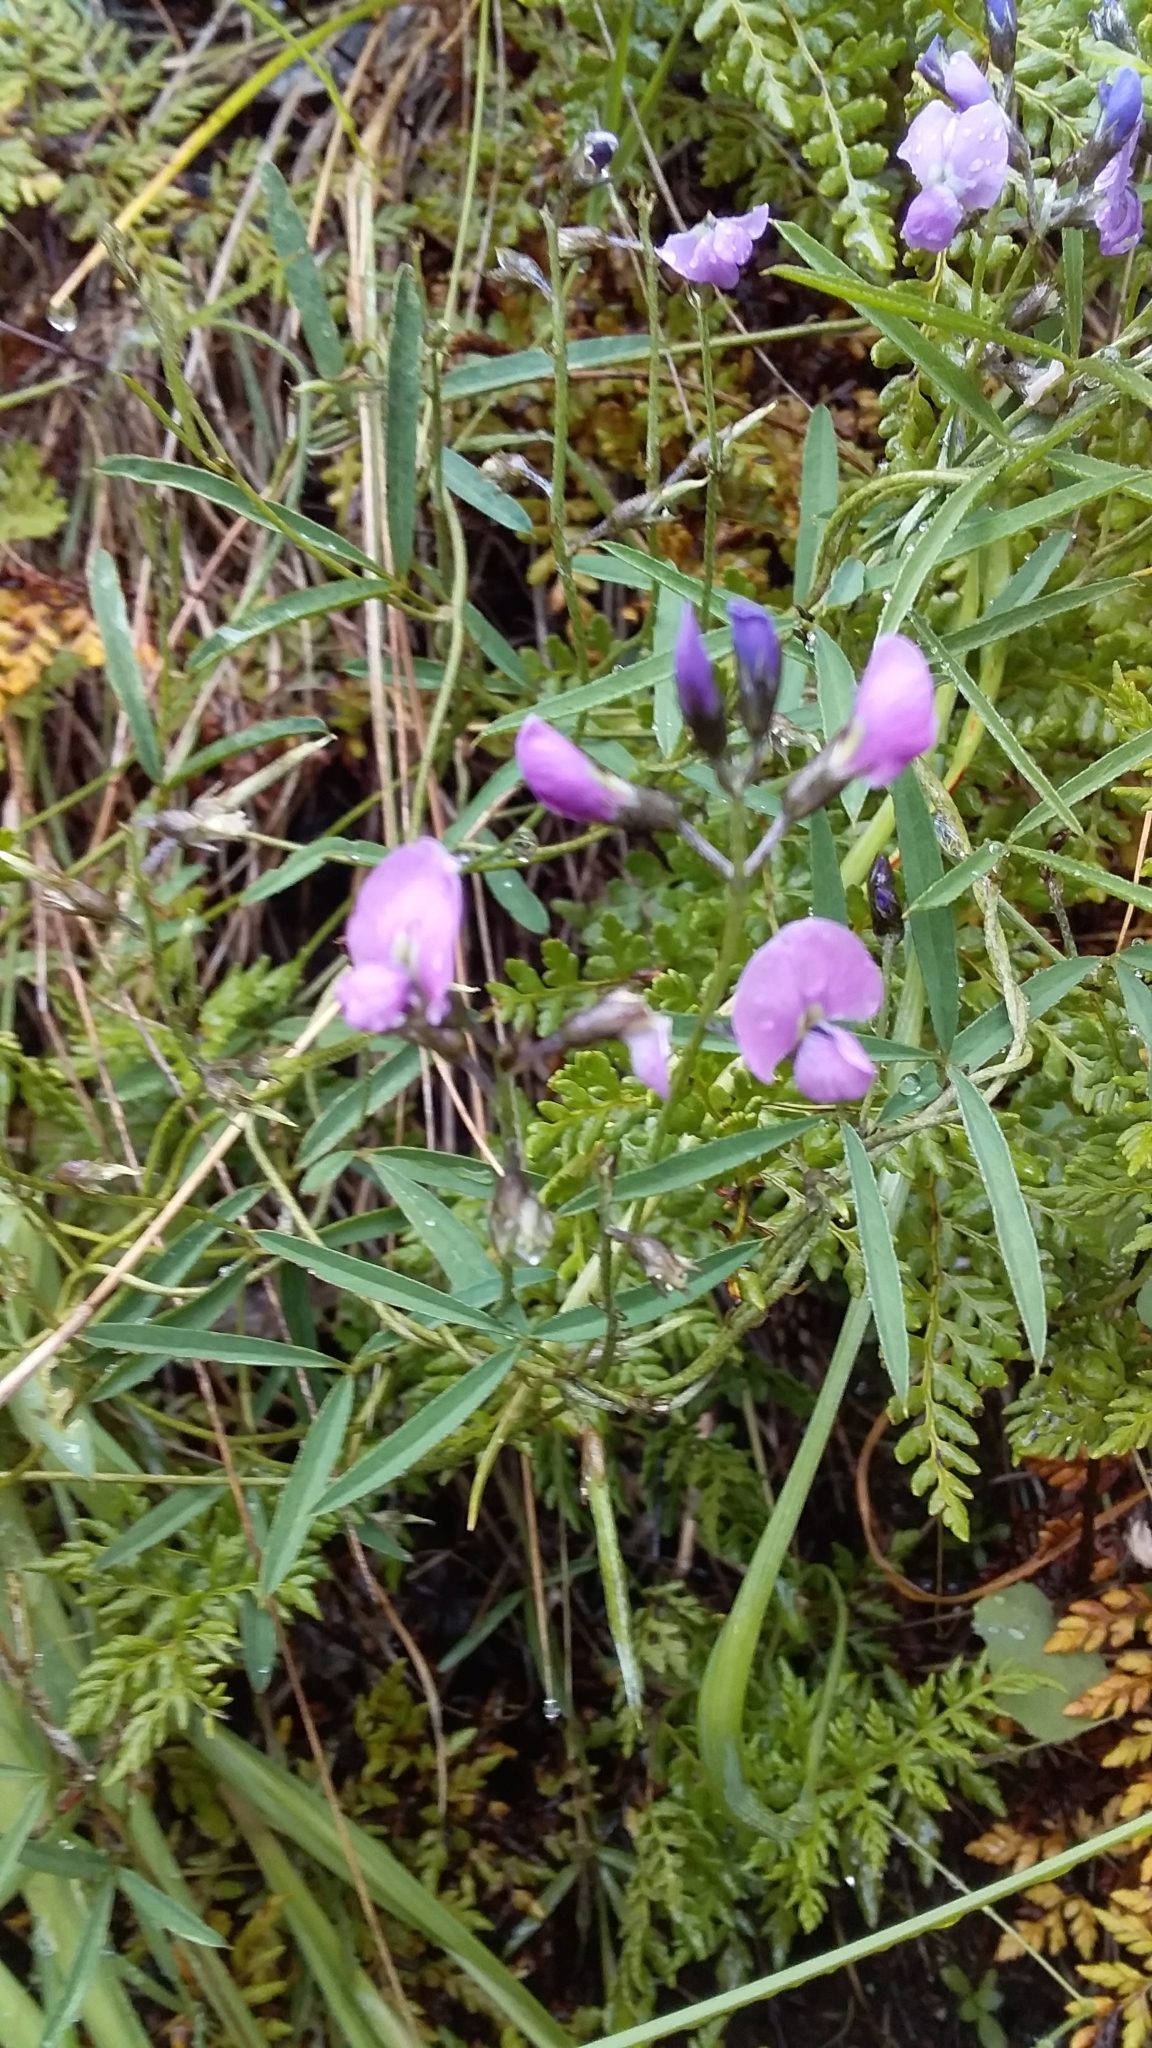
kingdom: Plantae
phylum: Tracheophyta
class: Magnoliopsida
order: Fabales
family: Fabaceae
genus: Glycine
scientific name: Glycine rubiginosa
